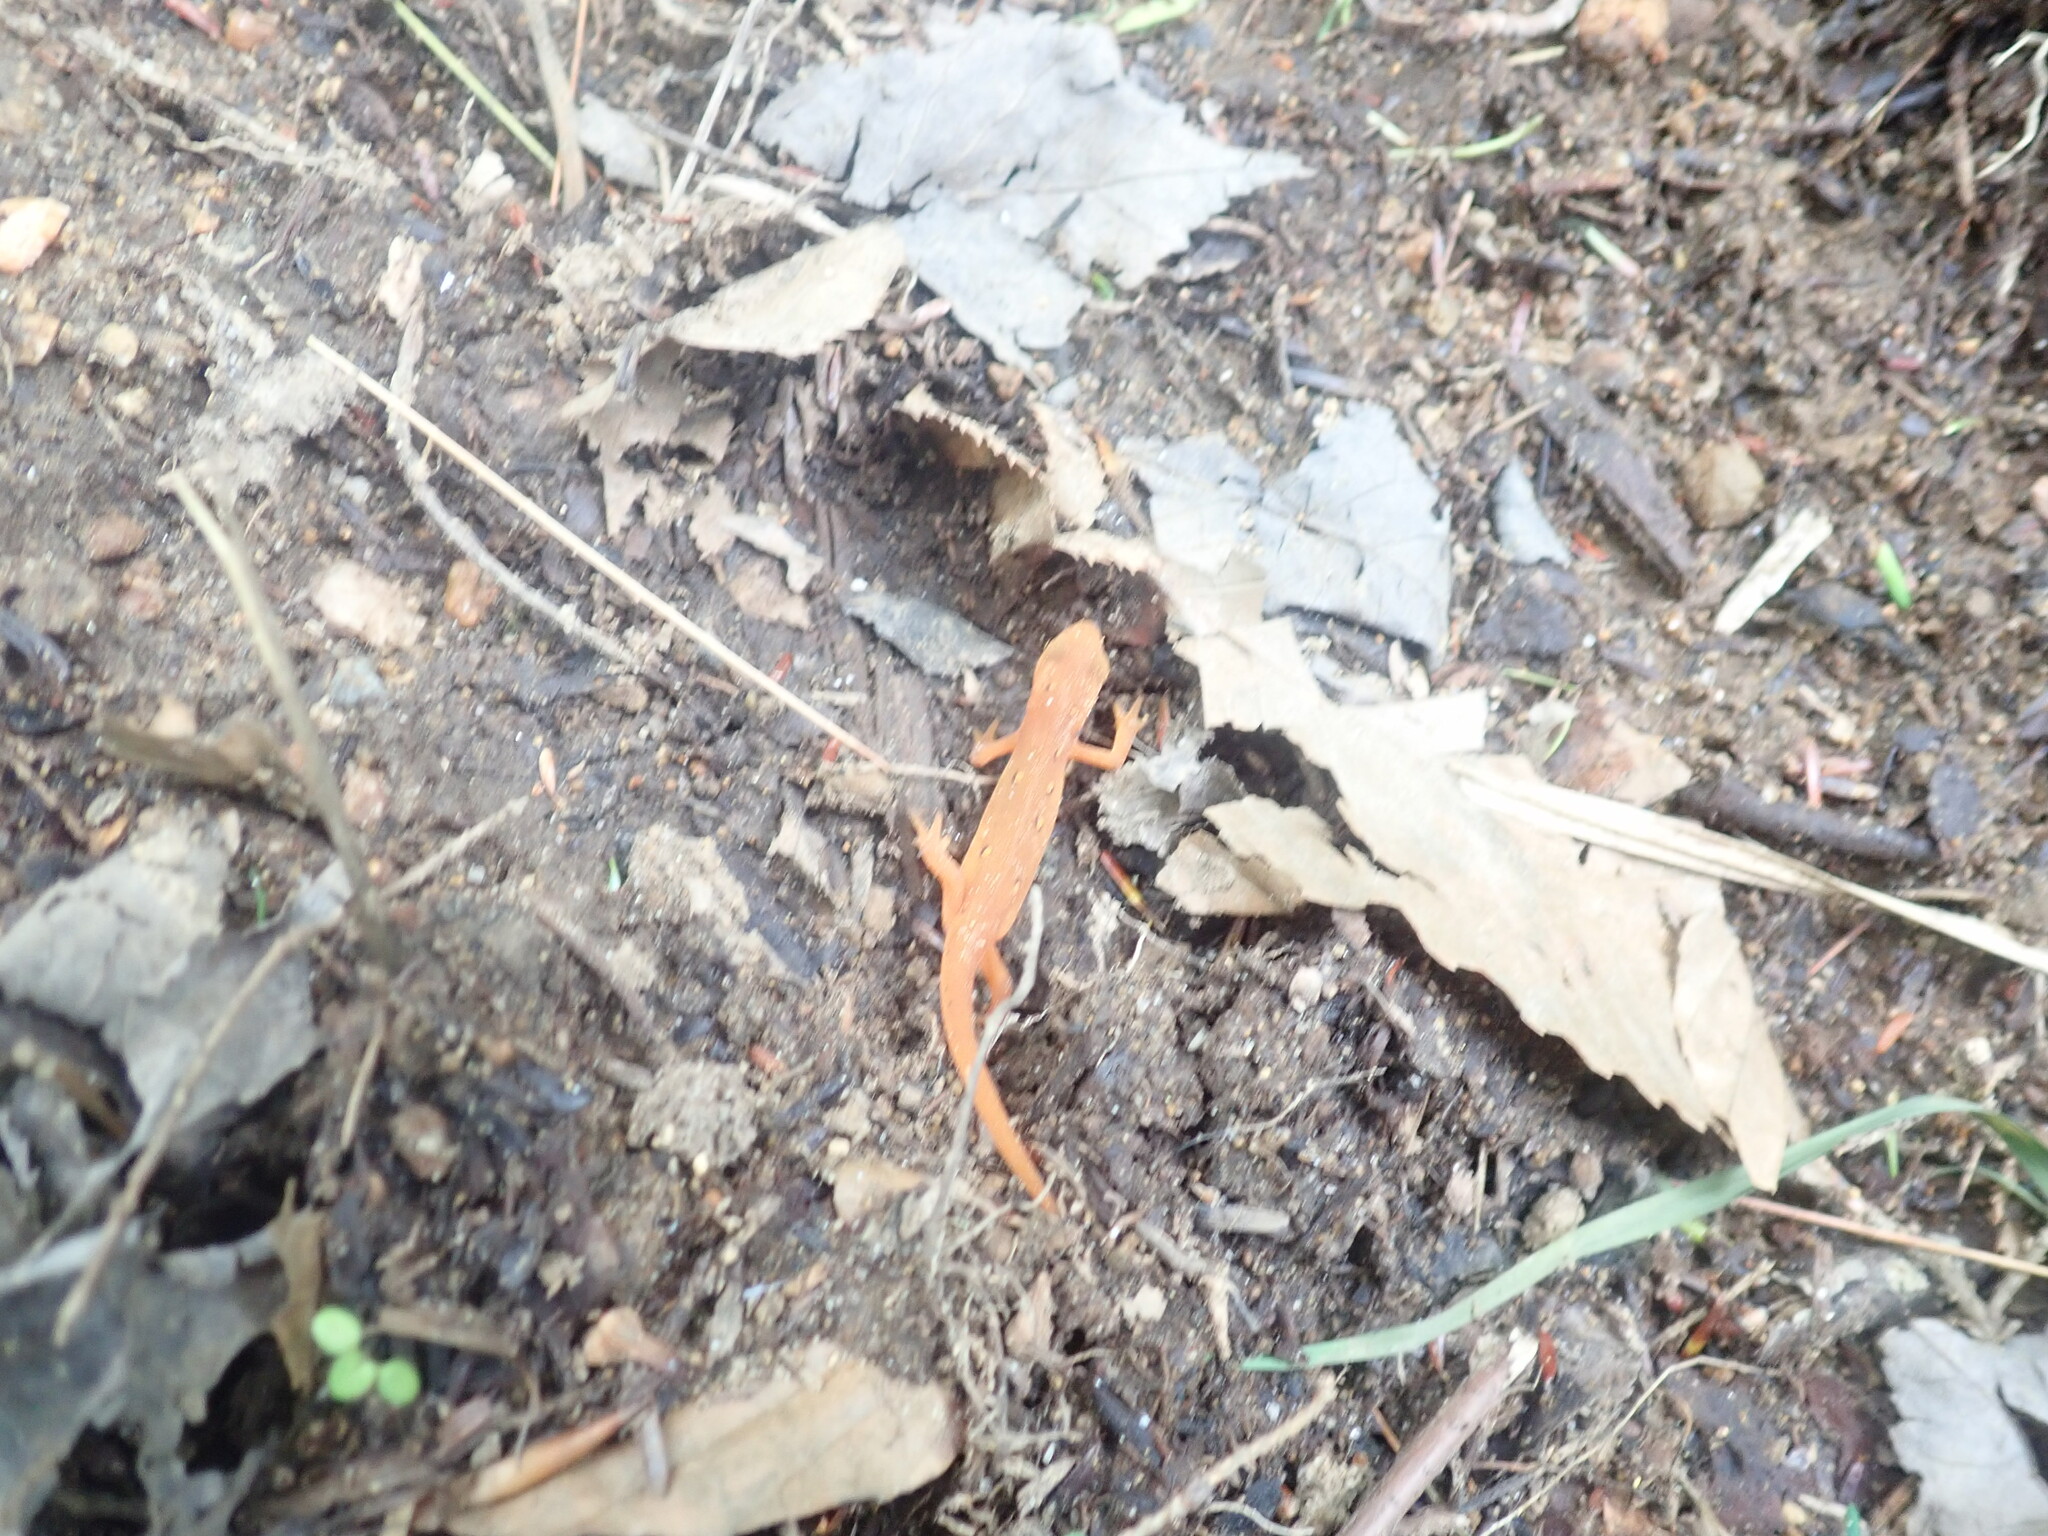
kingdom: Animalia
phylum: Chordata
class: Amphibia
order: Caudata
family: Salamandridae
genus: Notophthalmus
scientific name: Notophthalmus viridescens
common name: Eastern newt
